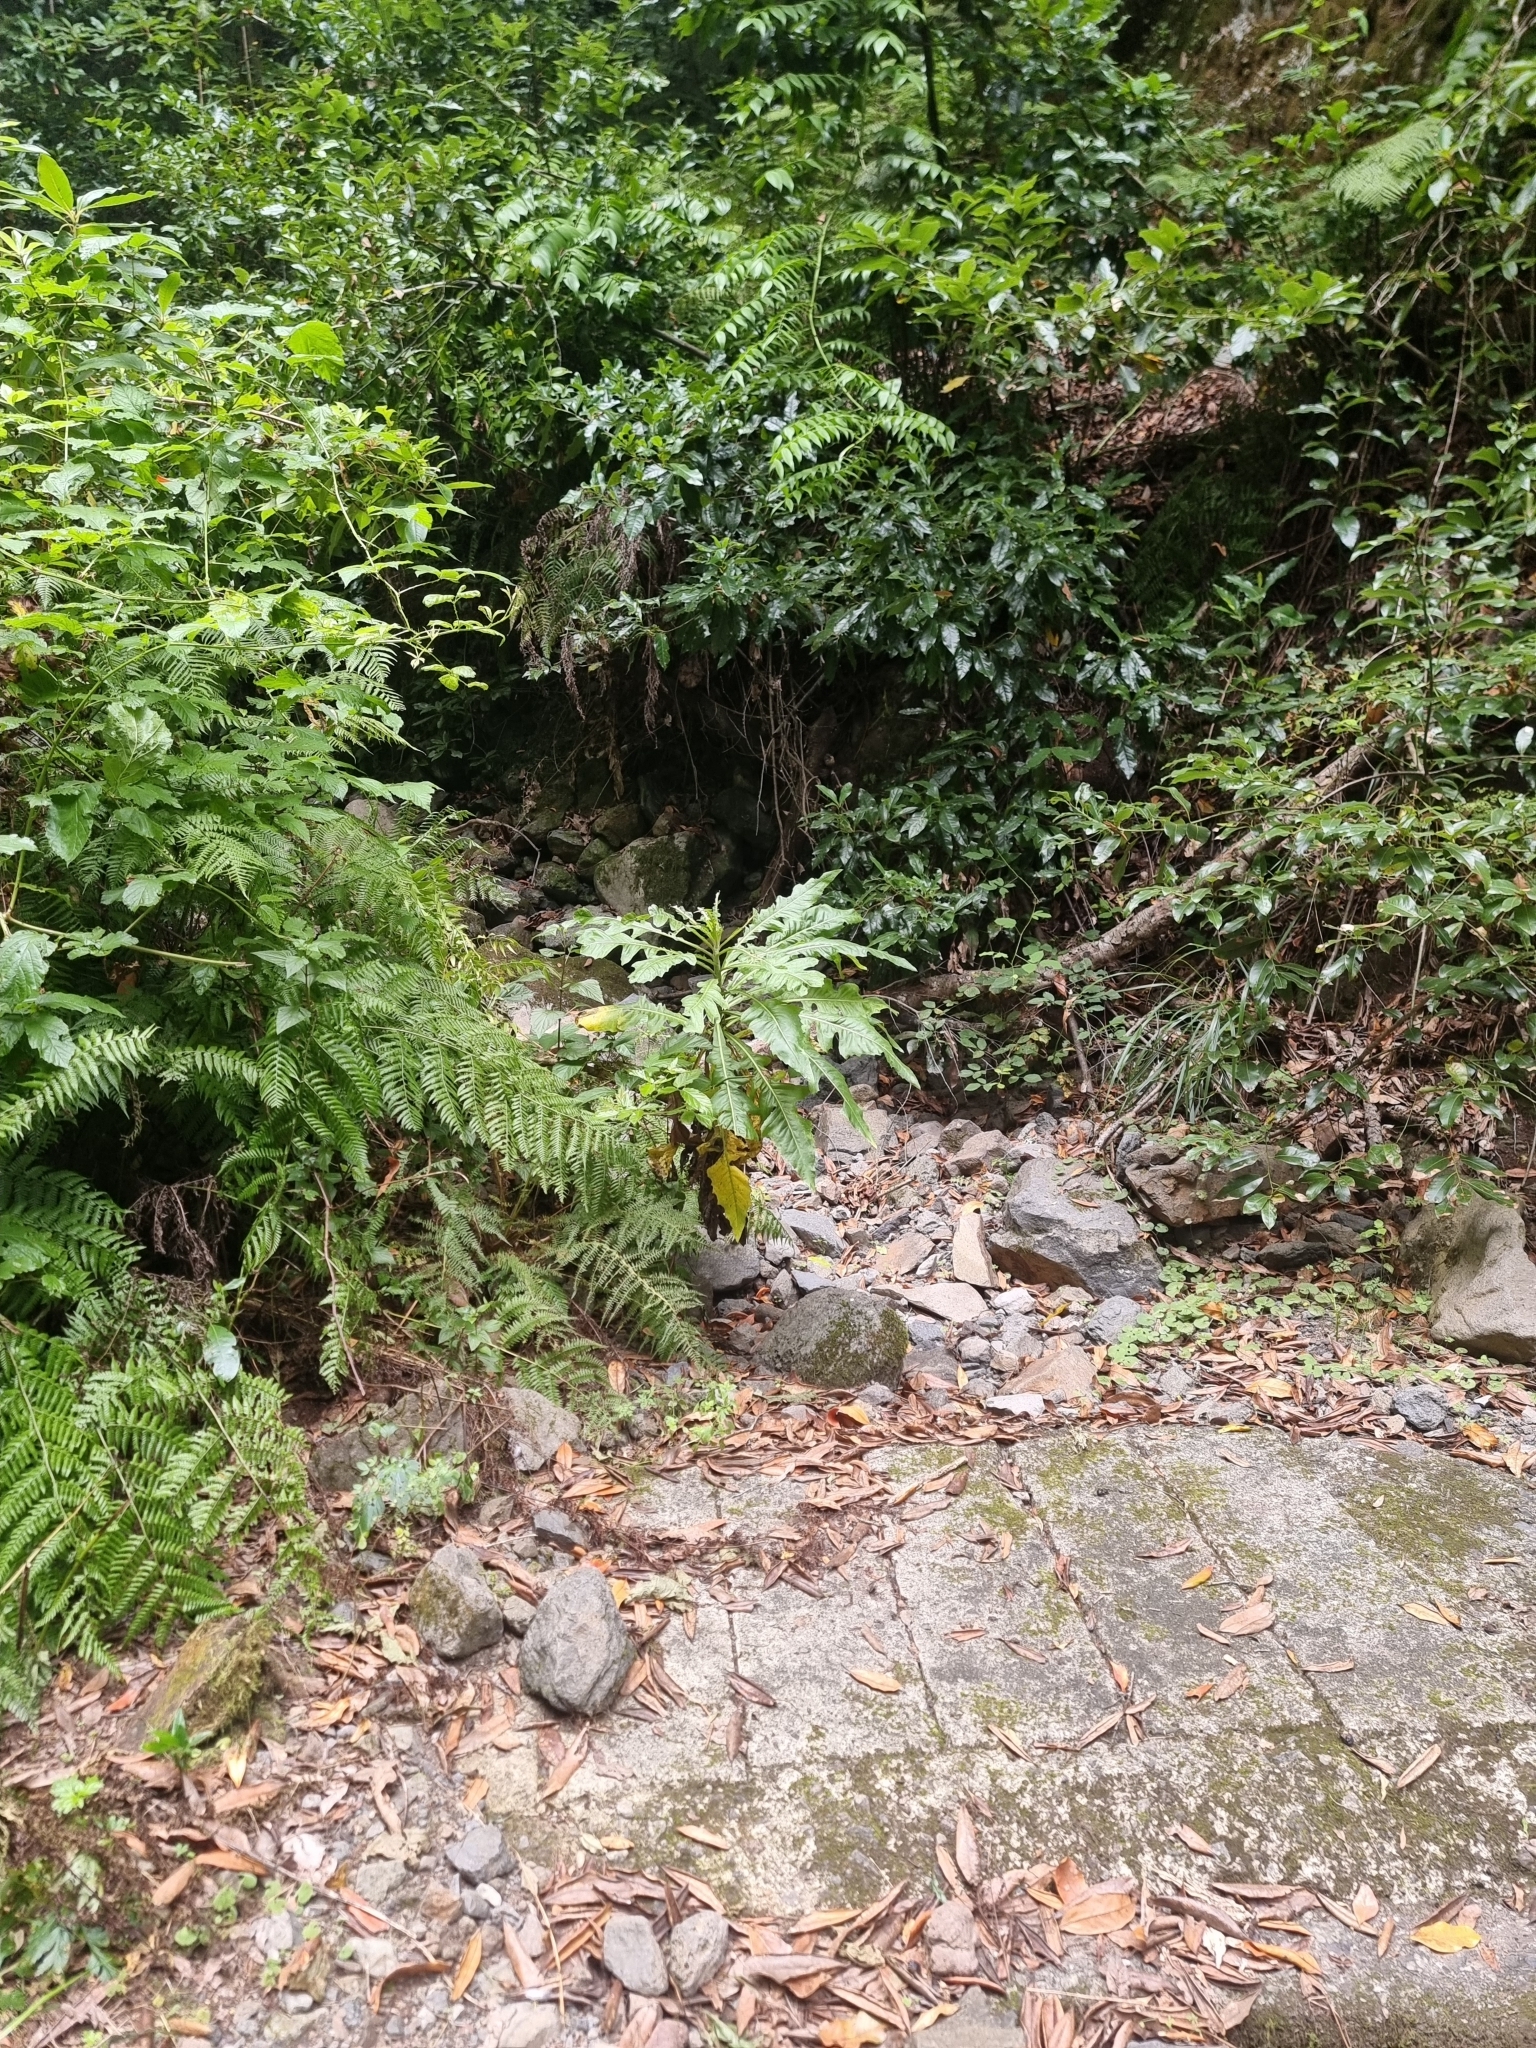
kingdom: Plantae
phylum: Tracheophyta
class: Magnoliopsida
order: Asterales
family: Asteraceae
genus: Sonchus
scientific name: Sonchus fruticosus
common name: Shrubby sow-thistle
